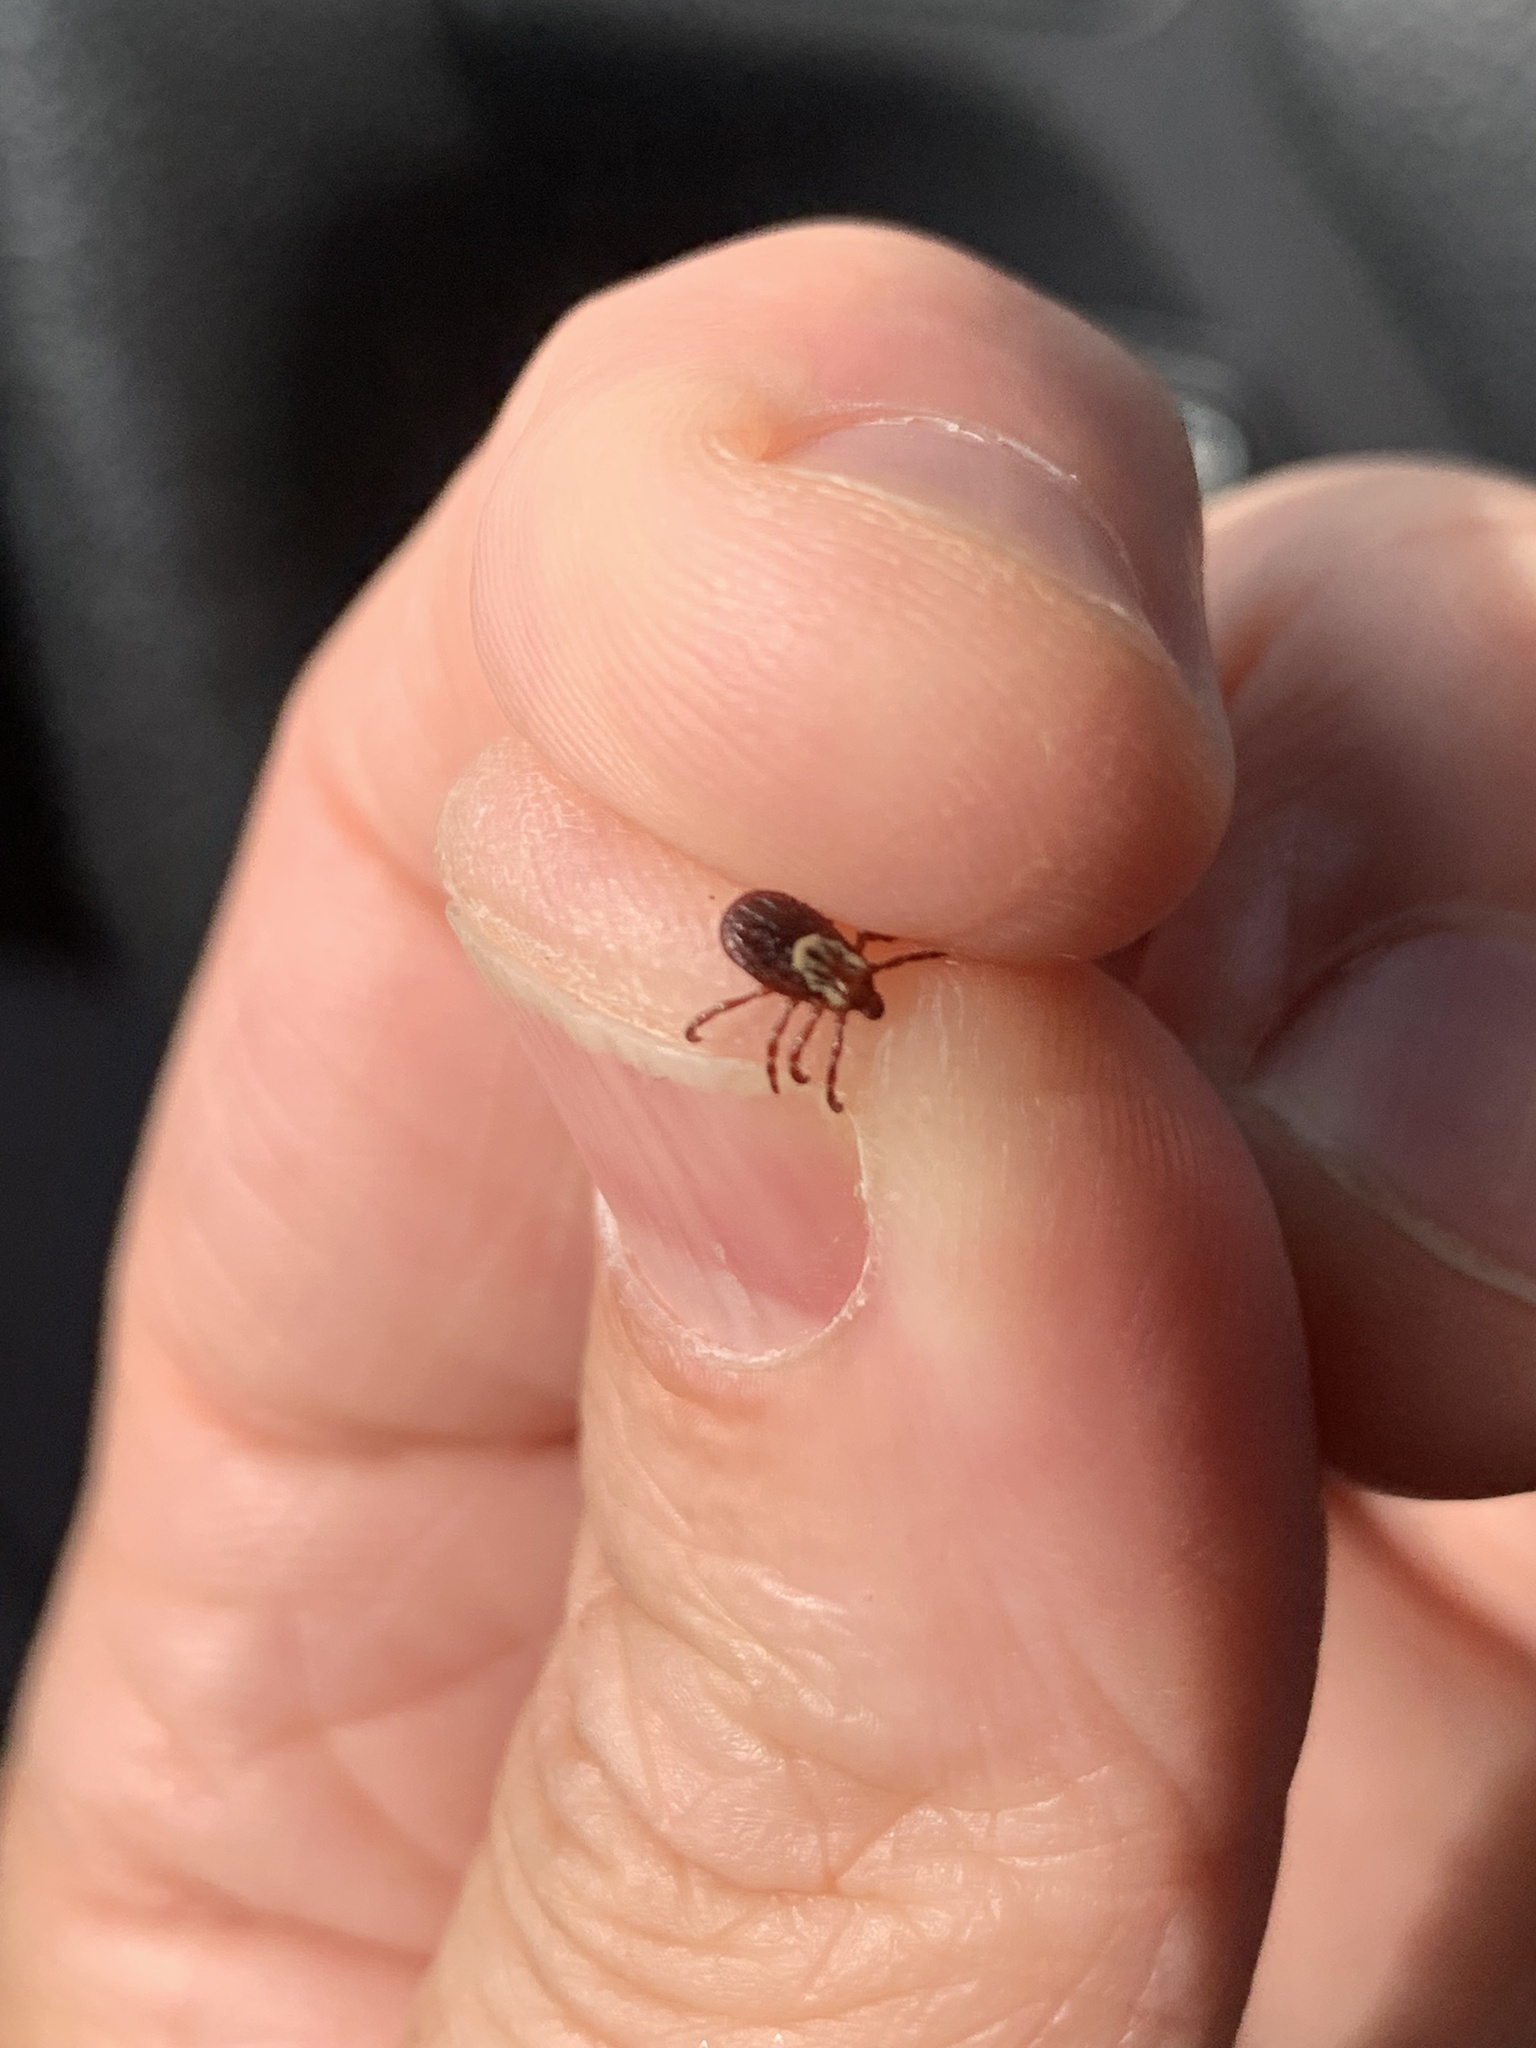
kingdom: Animalia
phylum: Arthropoda
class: Arachnida
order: Ixodida
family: Ixodidae
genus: Dermacentor
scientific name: Dermacentor variabilis
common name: American dog tick
